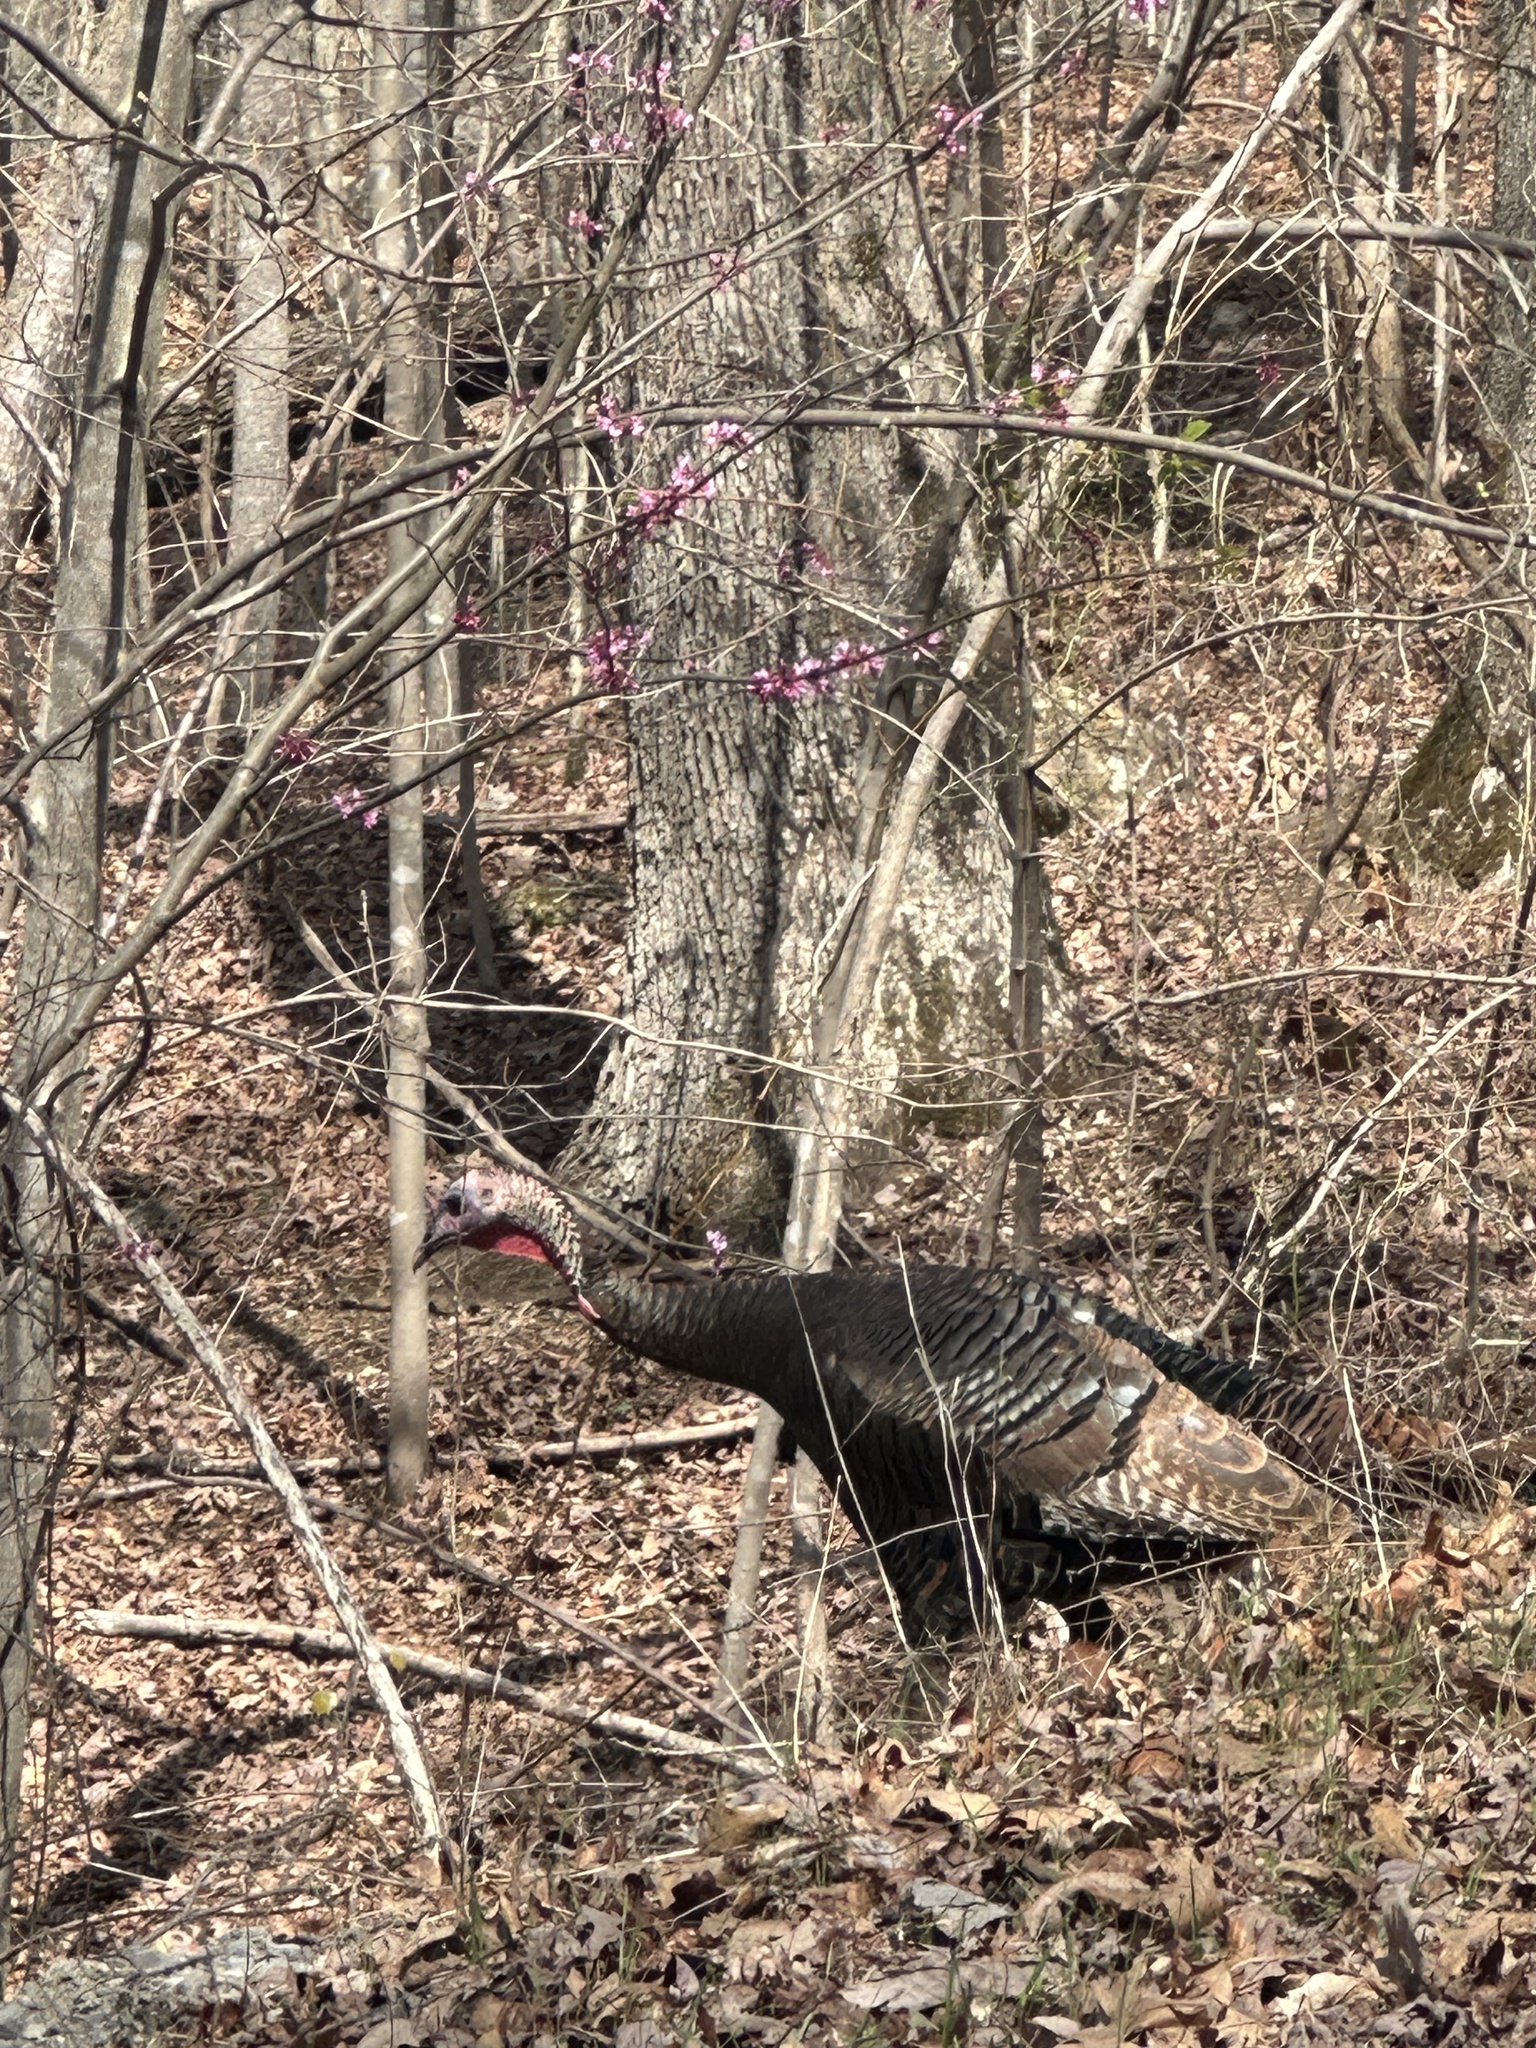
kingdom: Animalia
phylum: Chordata
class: Aves
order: Galliformes
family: Phasianidae
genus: Meleagris
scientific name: Meleagris gallopavo
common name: Wild turkey
